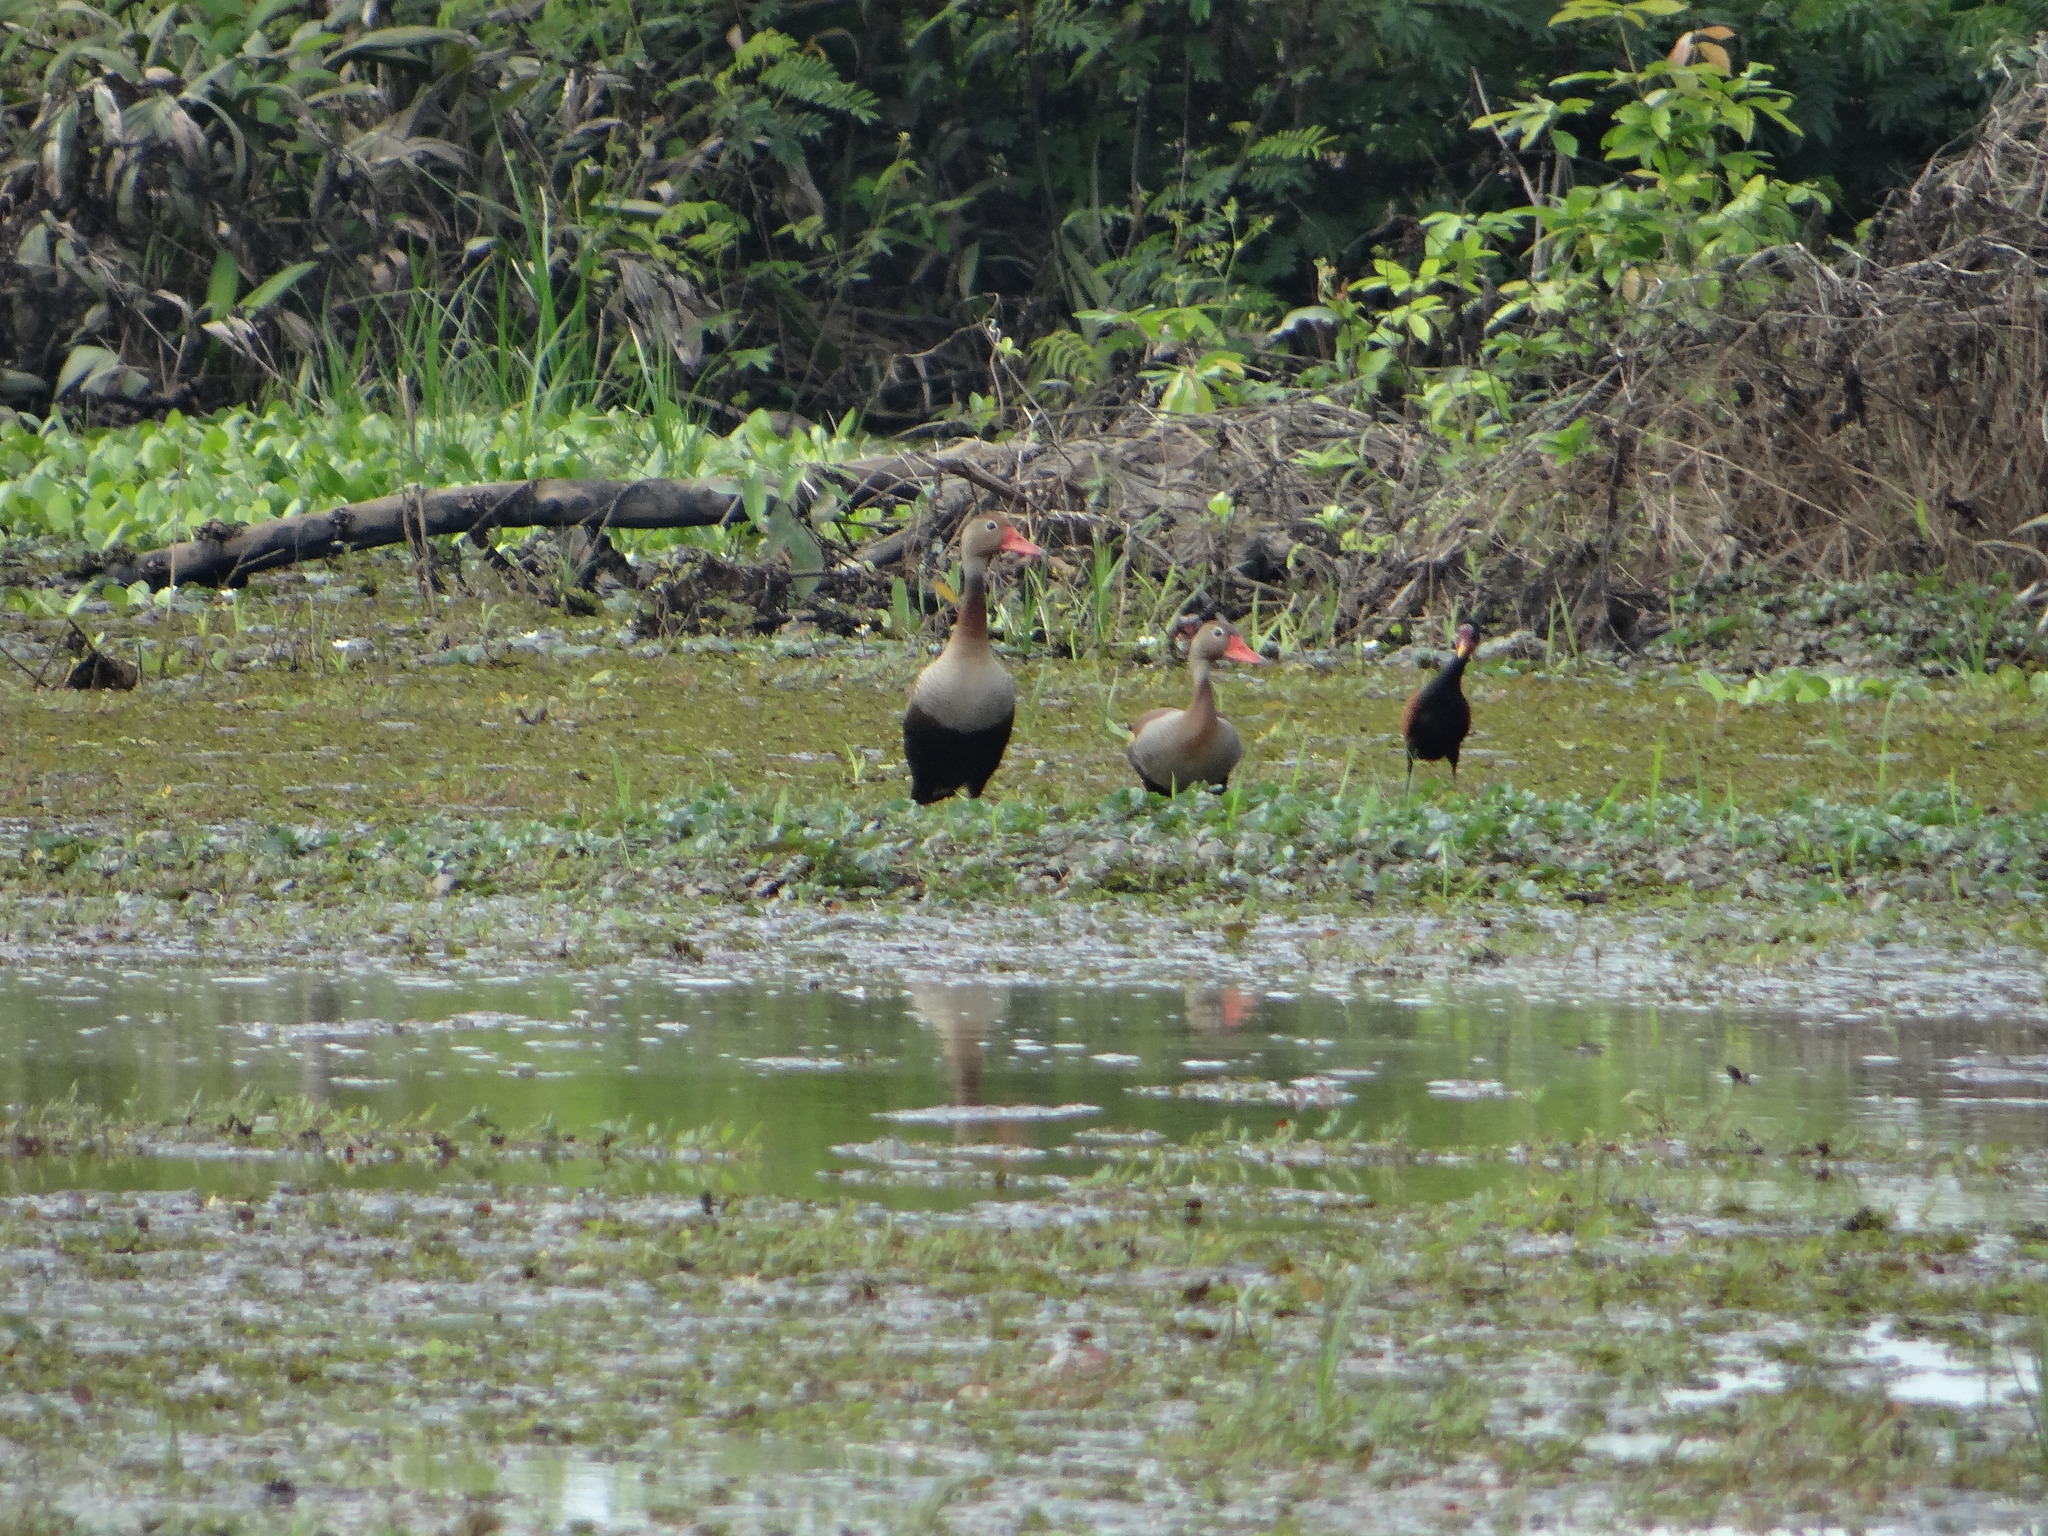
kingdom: Animalia
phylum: Chordata
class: Aves
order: Anseriformes
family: Anatidae
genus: Dendrocygna
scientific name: Dendrocygna autumnalis
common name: Black-bellied whistling duck
